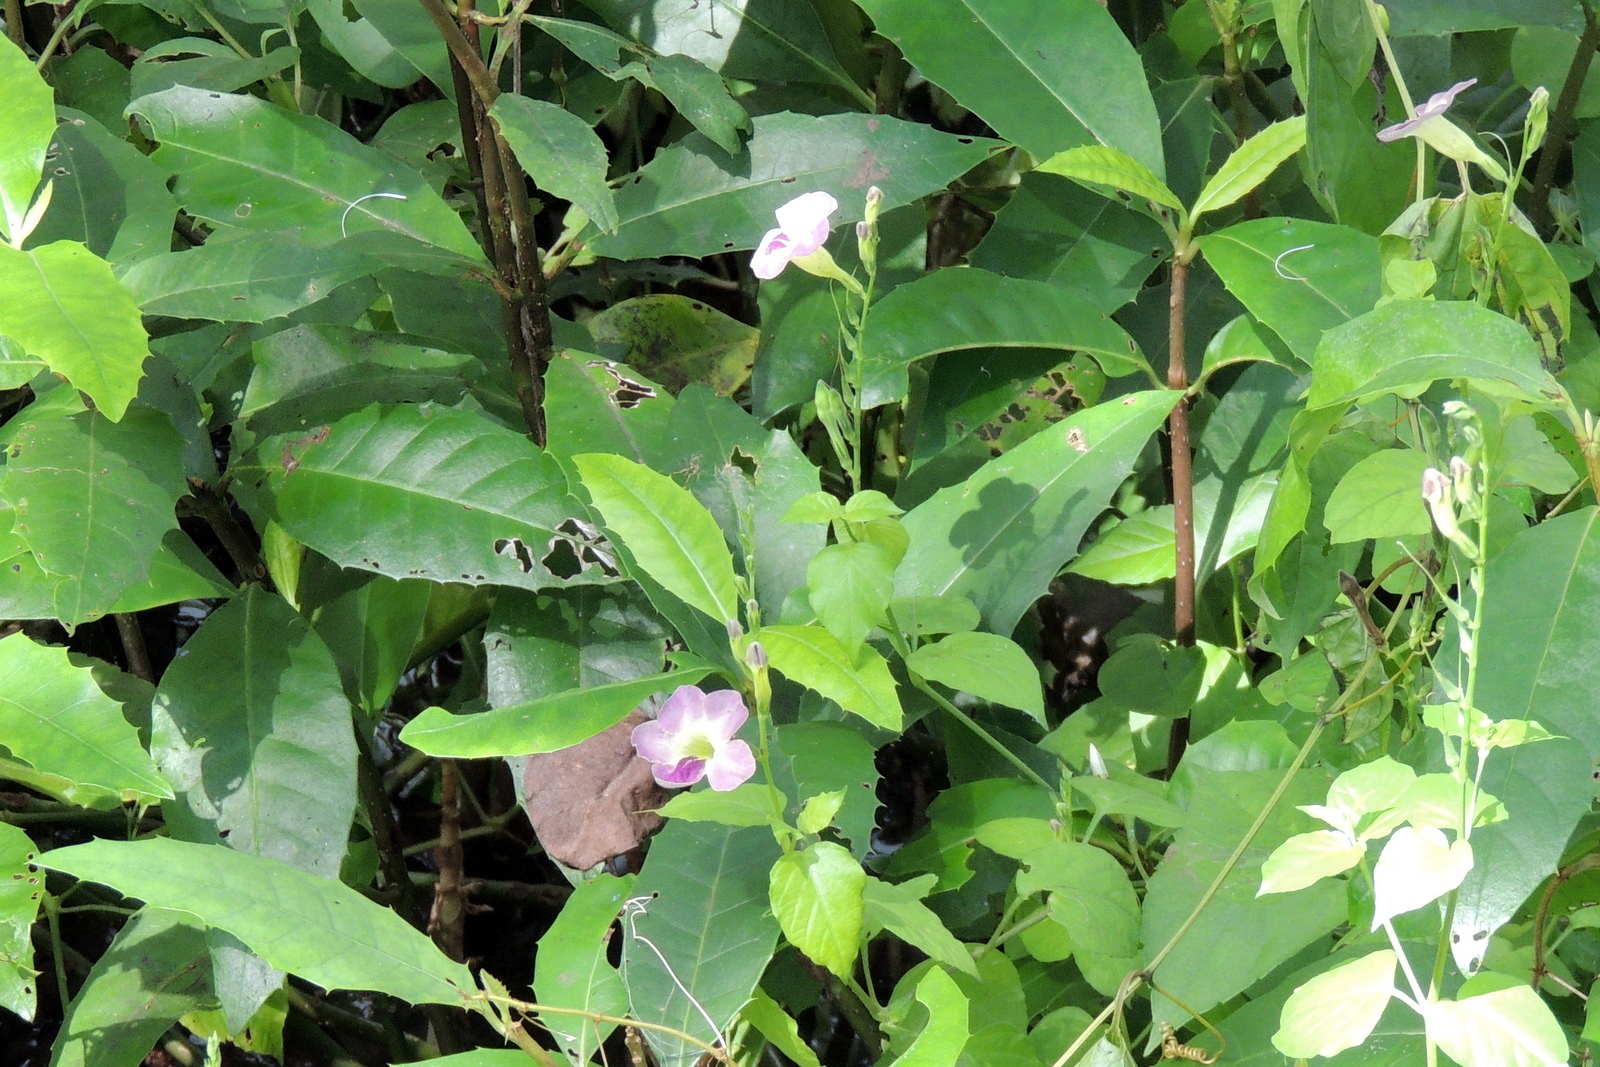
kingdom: Plantae
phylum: Tracheophyta
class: Magnoliopsida
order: Lamiales
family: Acanthaceae
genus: Asystasia
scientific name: Asystasia gangetica
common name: Chinese violet
